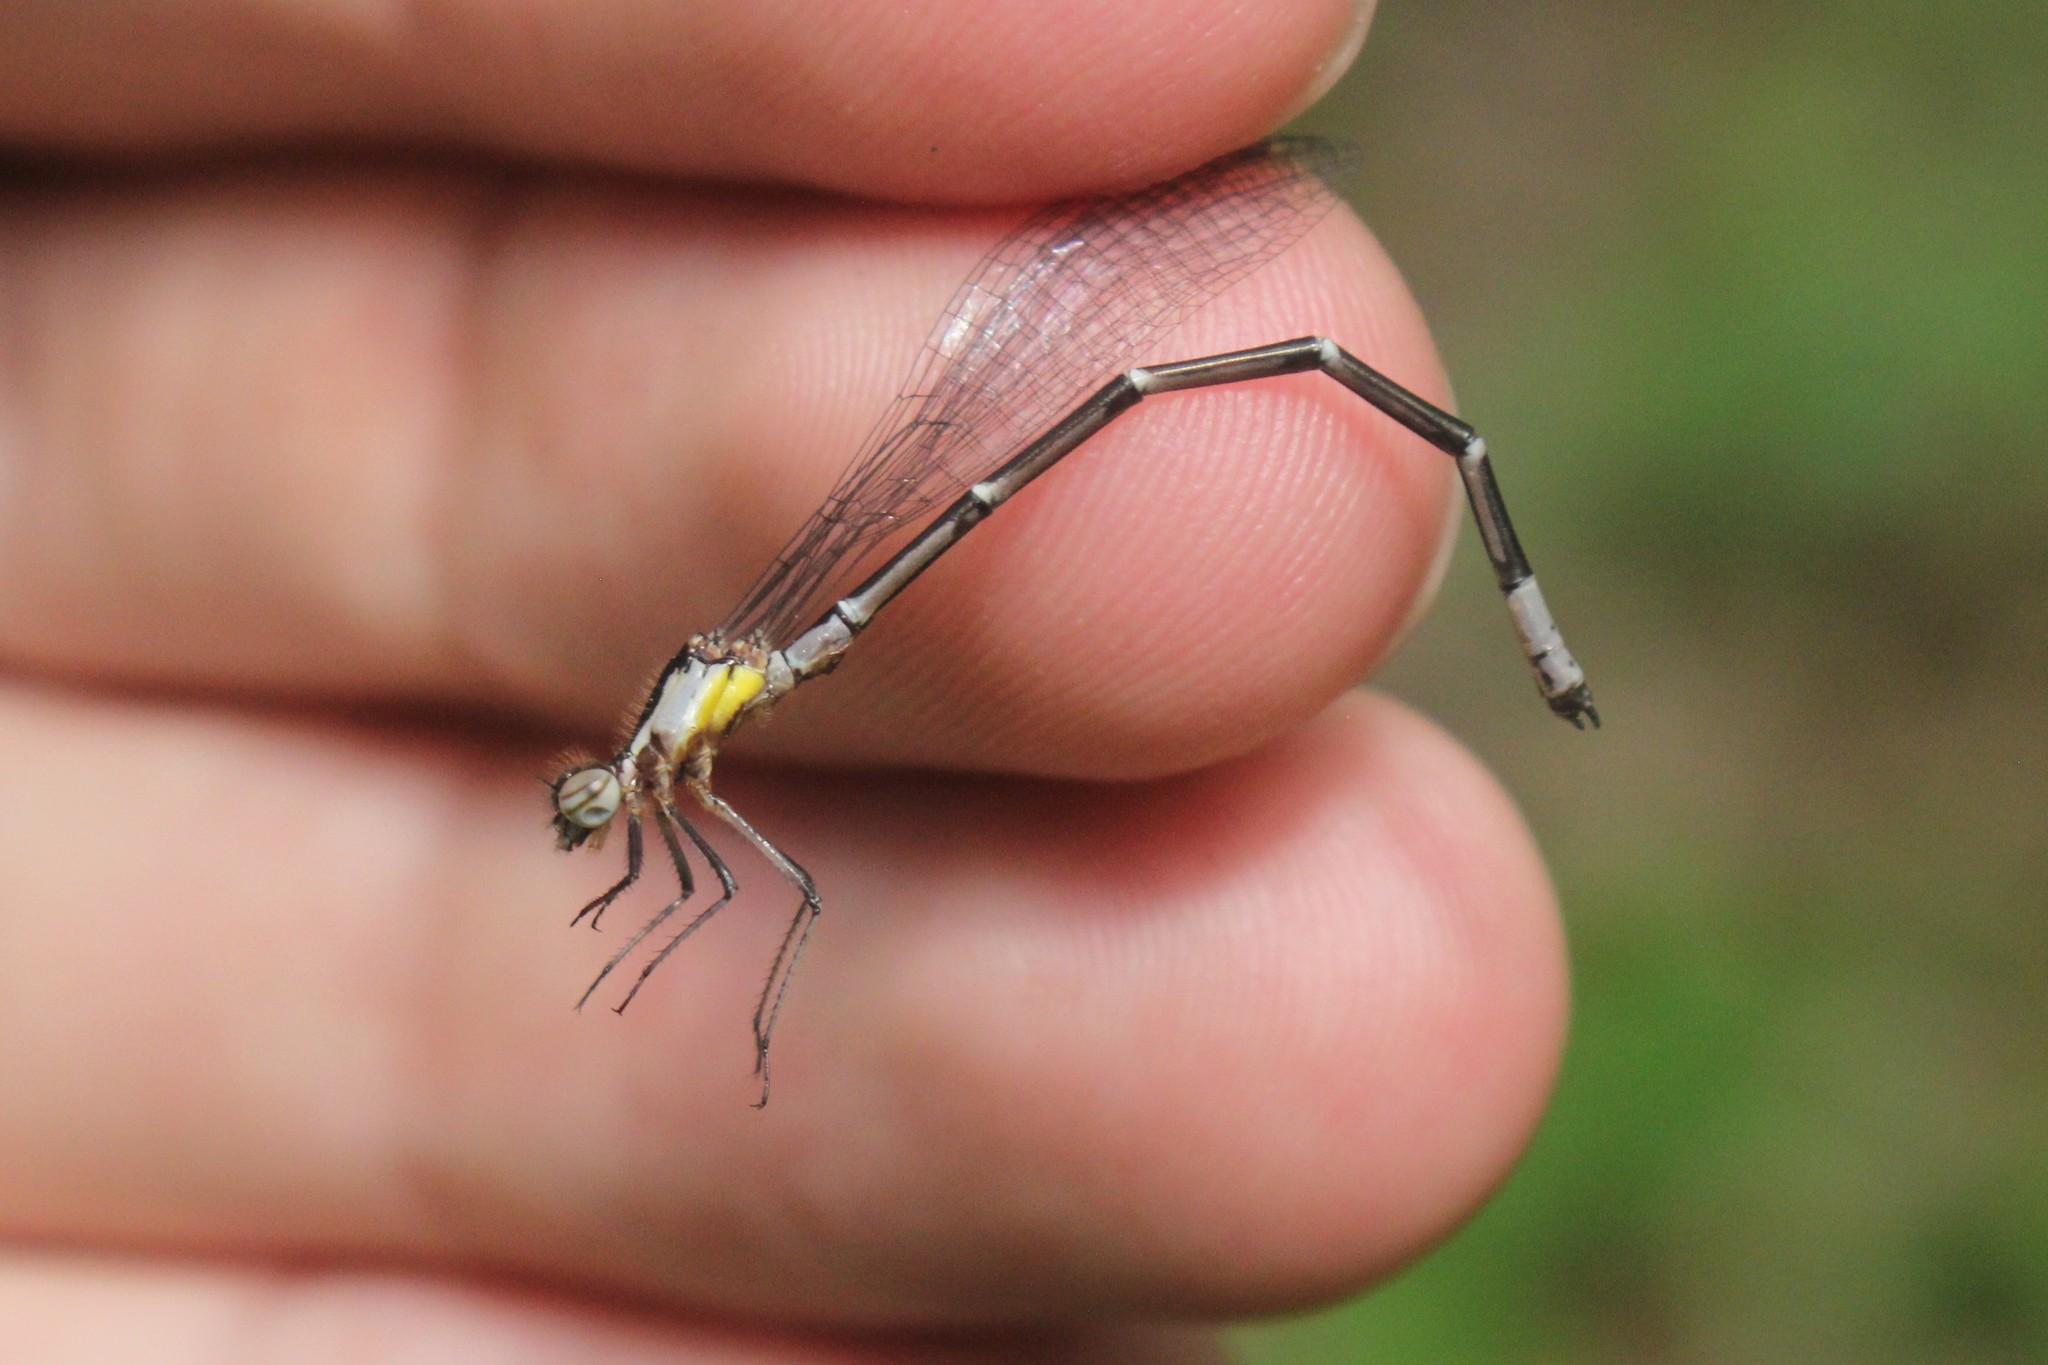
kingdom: Animalia
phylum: Arthropoda
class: Insecta
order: Odonata
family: Coenagrionidae
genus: Chromagrion
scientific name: Chromagrion conditum
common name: Aurora damsel
